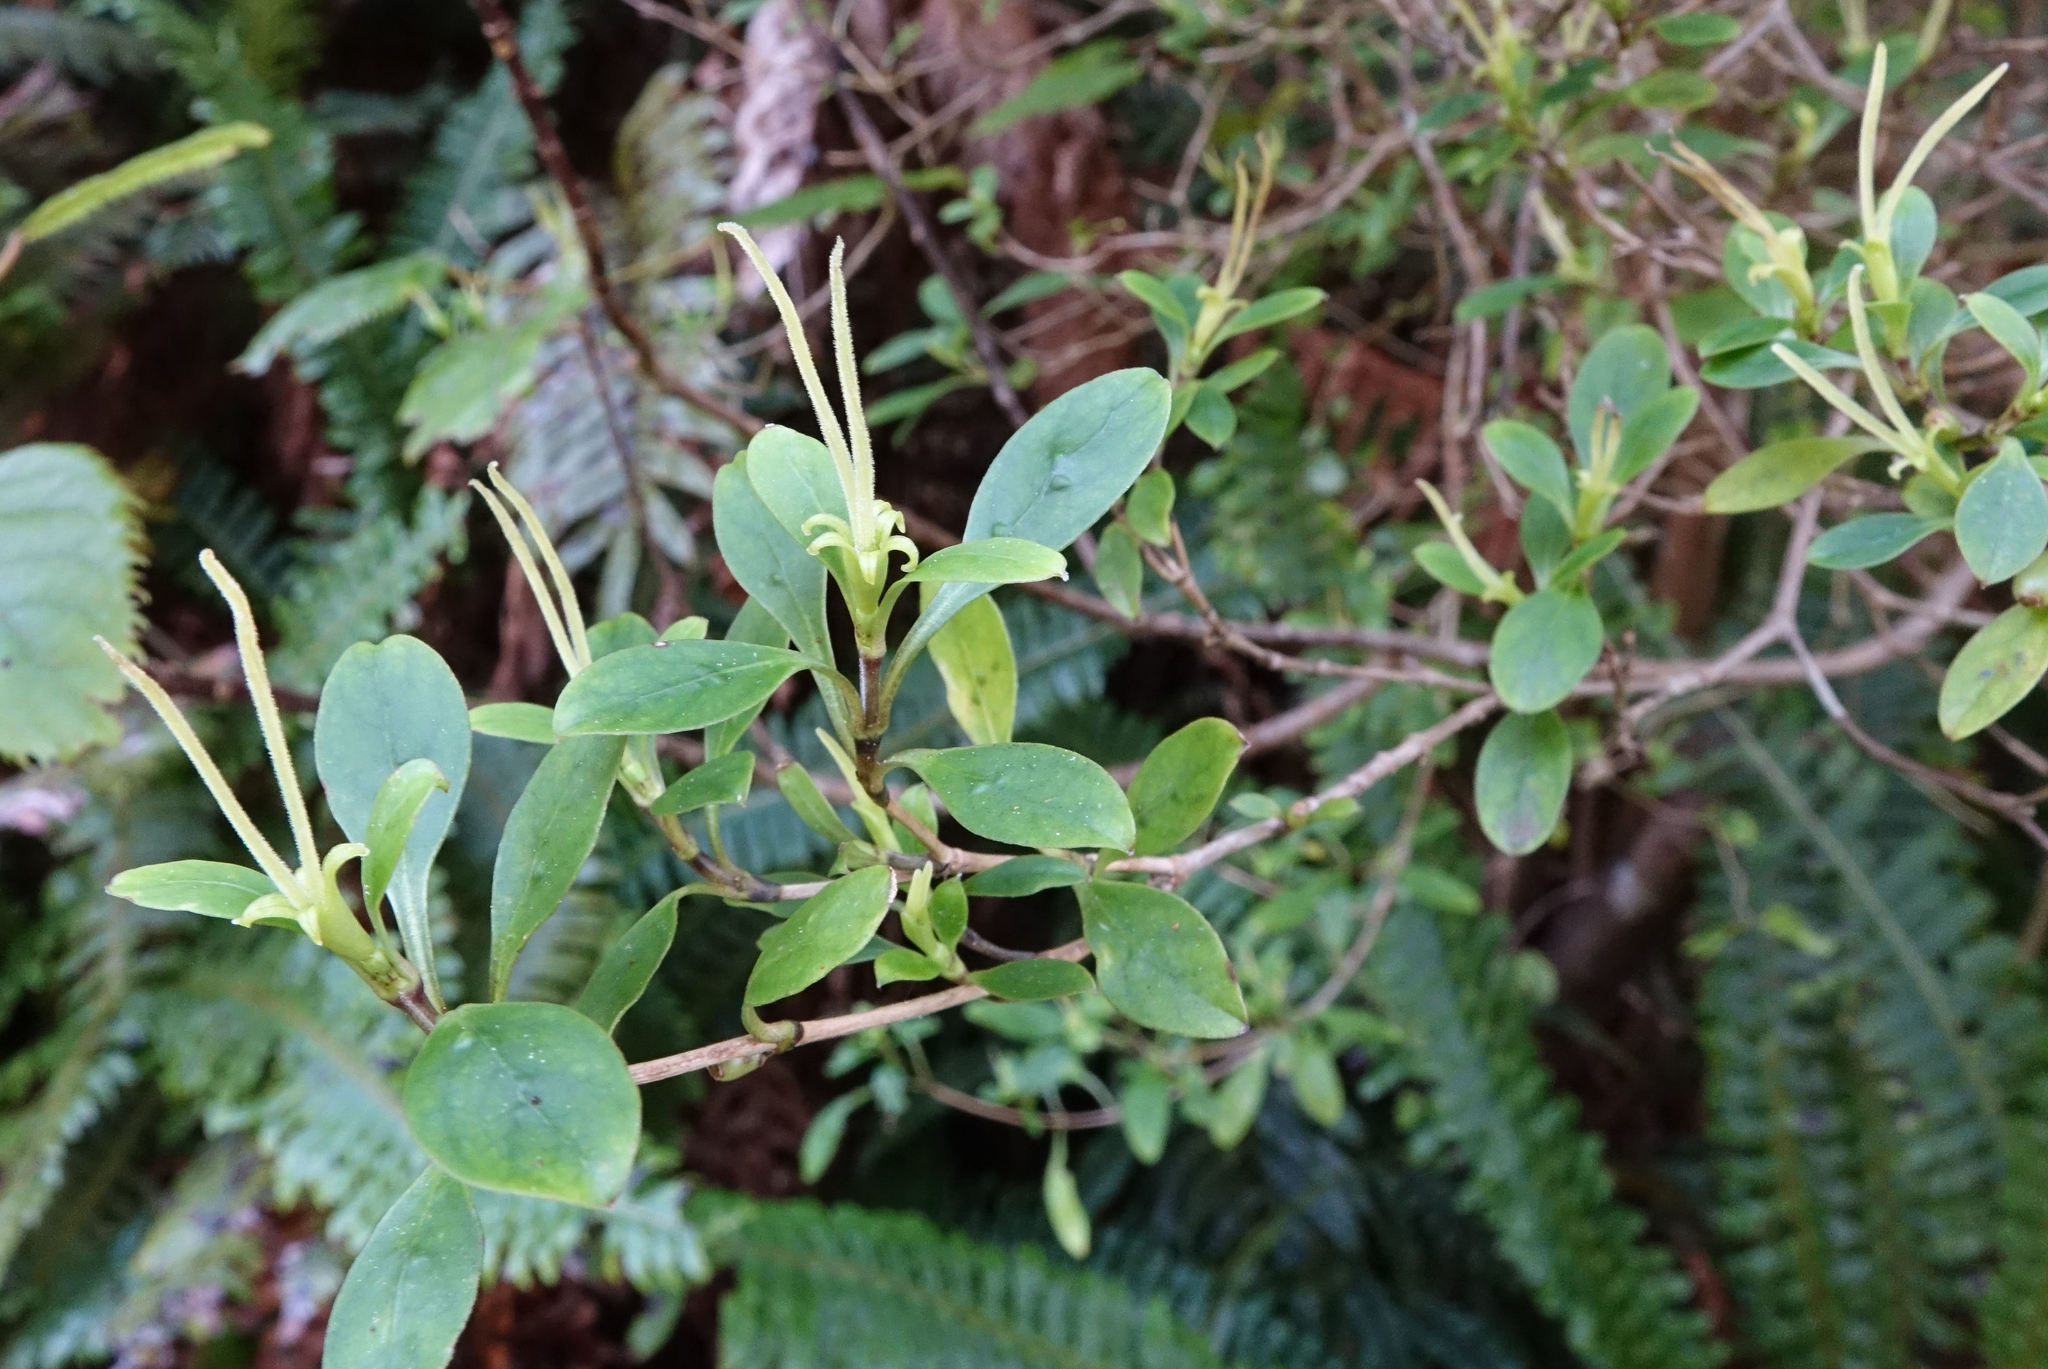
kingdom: Plantae
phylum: Tracheophyta
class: Magnoliopsida
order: Gentianales
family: Rubiaceae
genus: Coprosma
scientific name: Coprosma foetidissima
